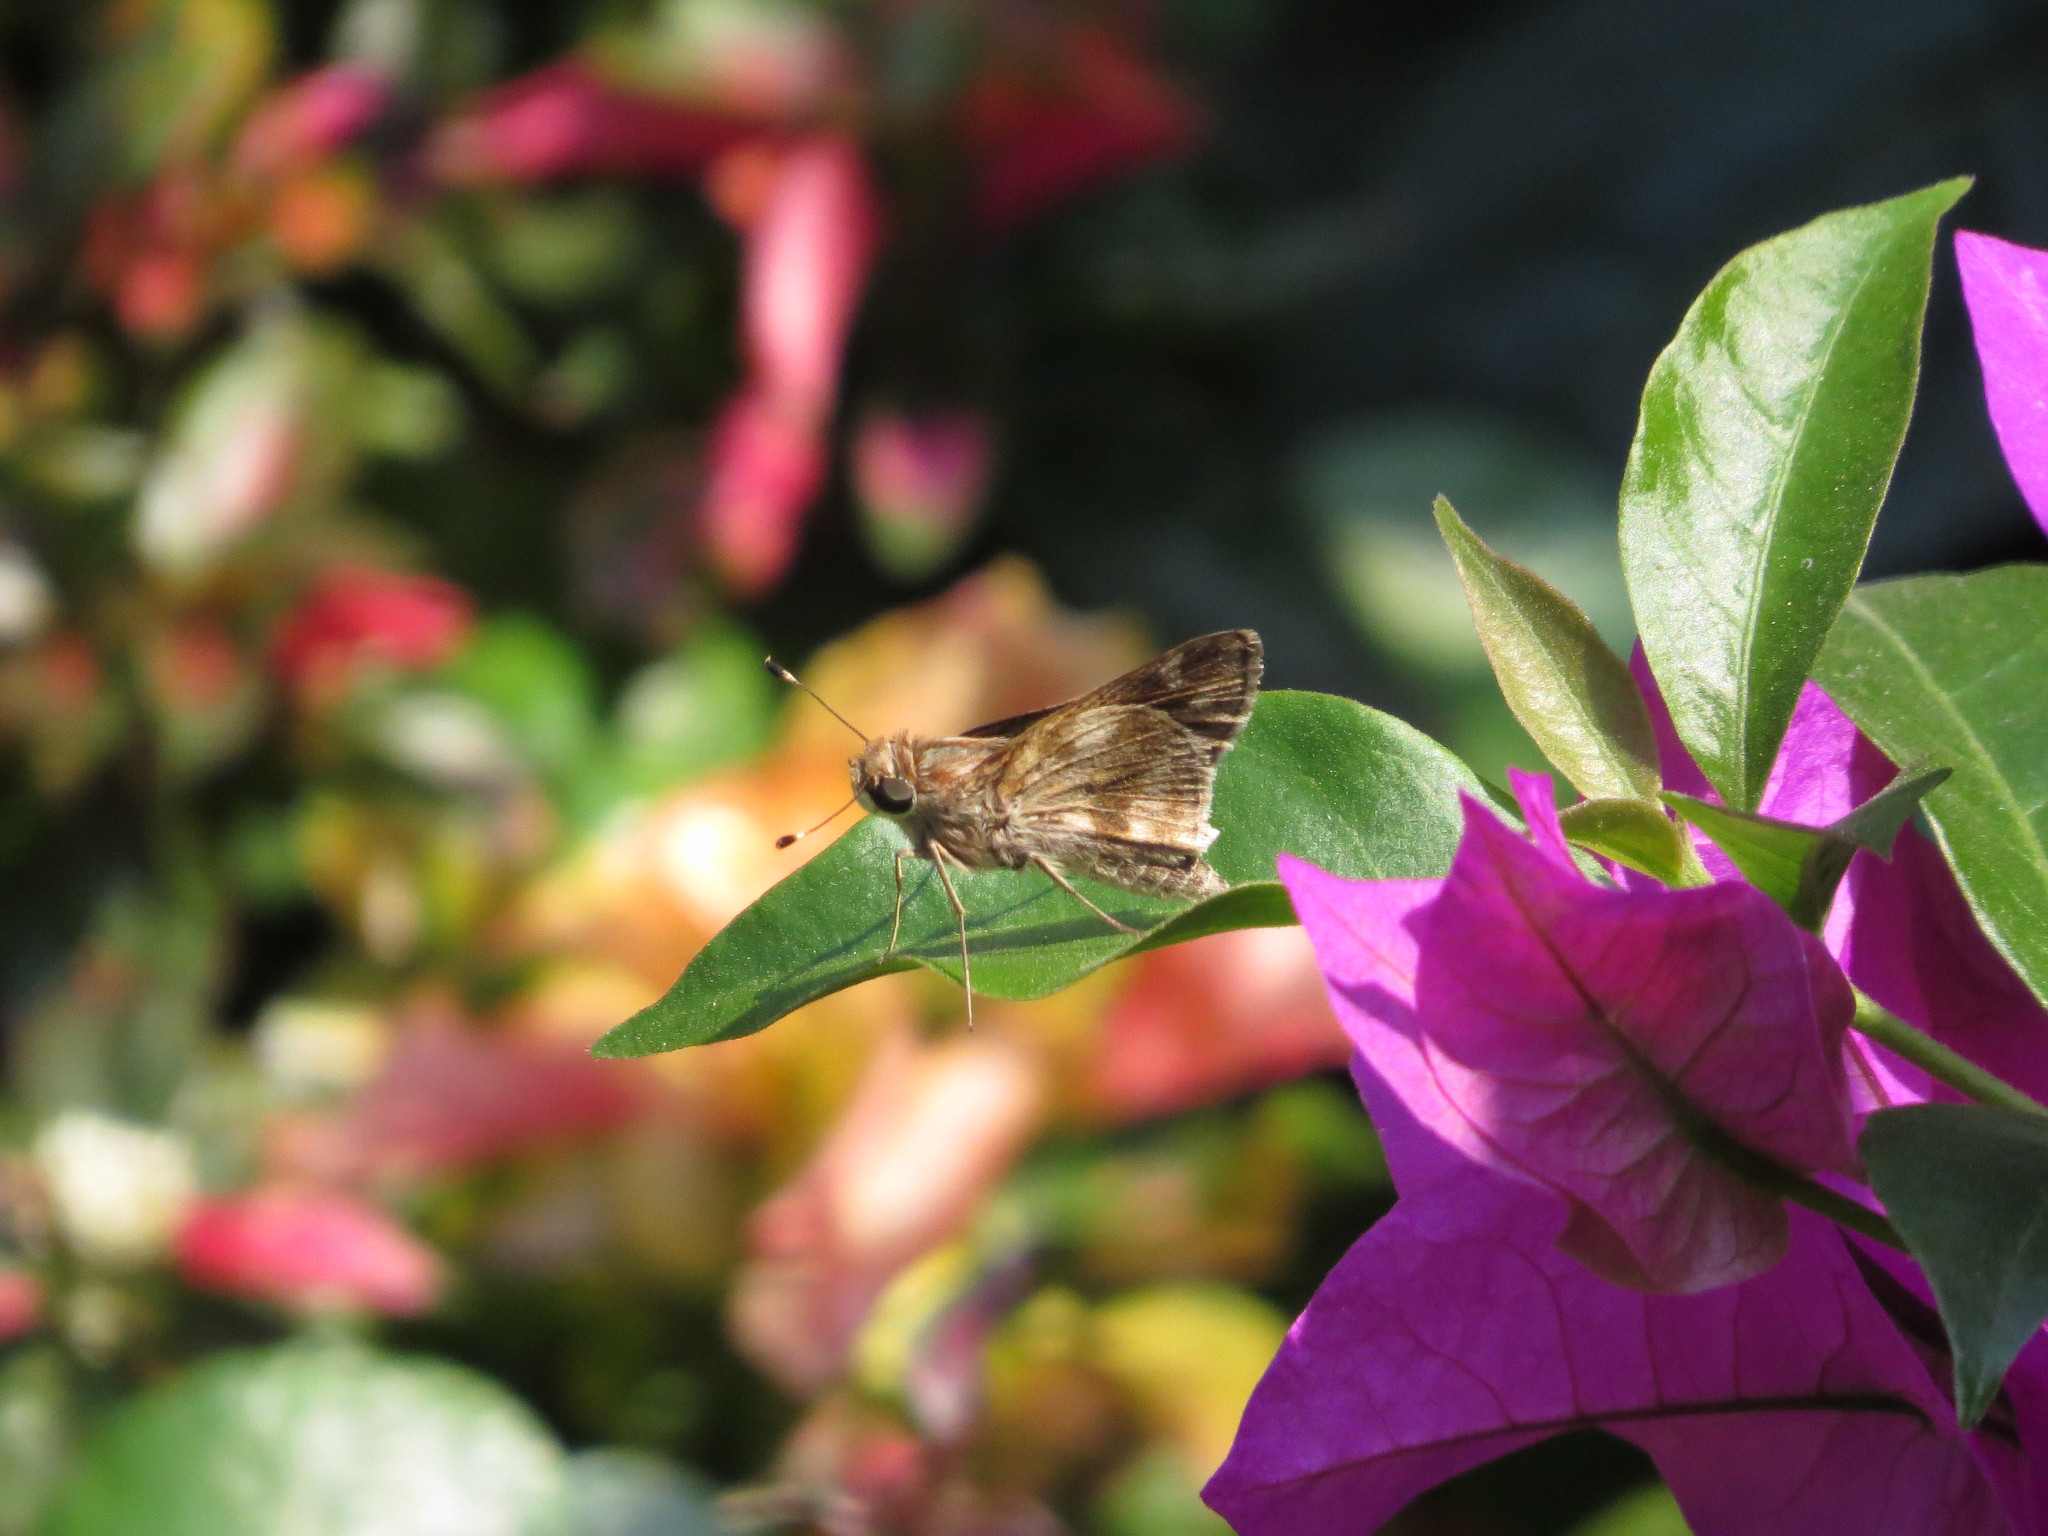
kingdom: Animalia
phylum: Arthropoda
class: Insecta
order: Lepidoptera
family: Hesperiidae
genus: Pompeius
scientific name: Pompeius pompeius
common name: Pompeius skipper
